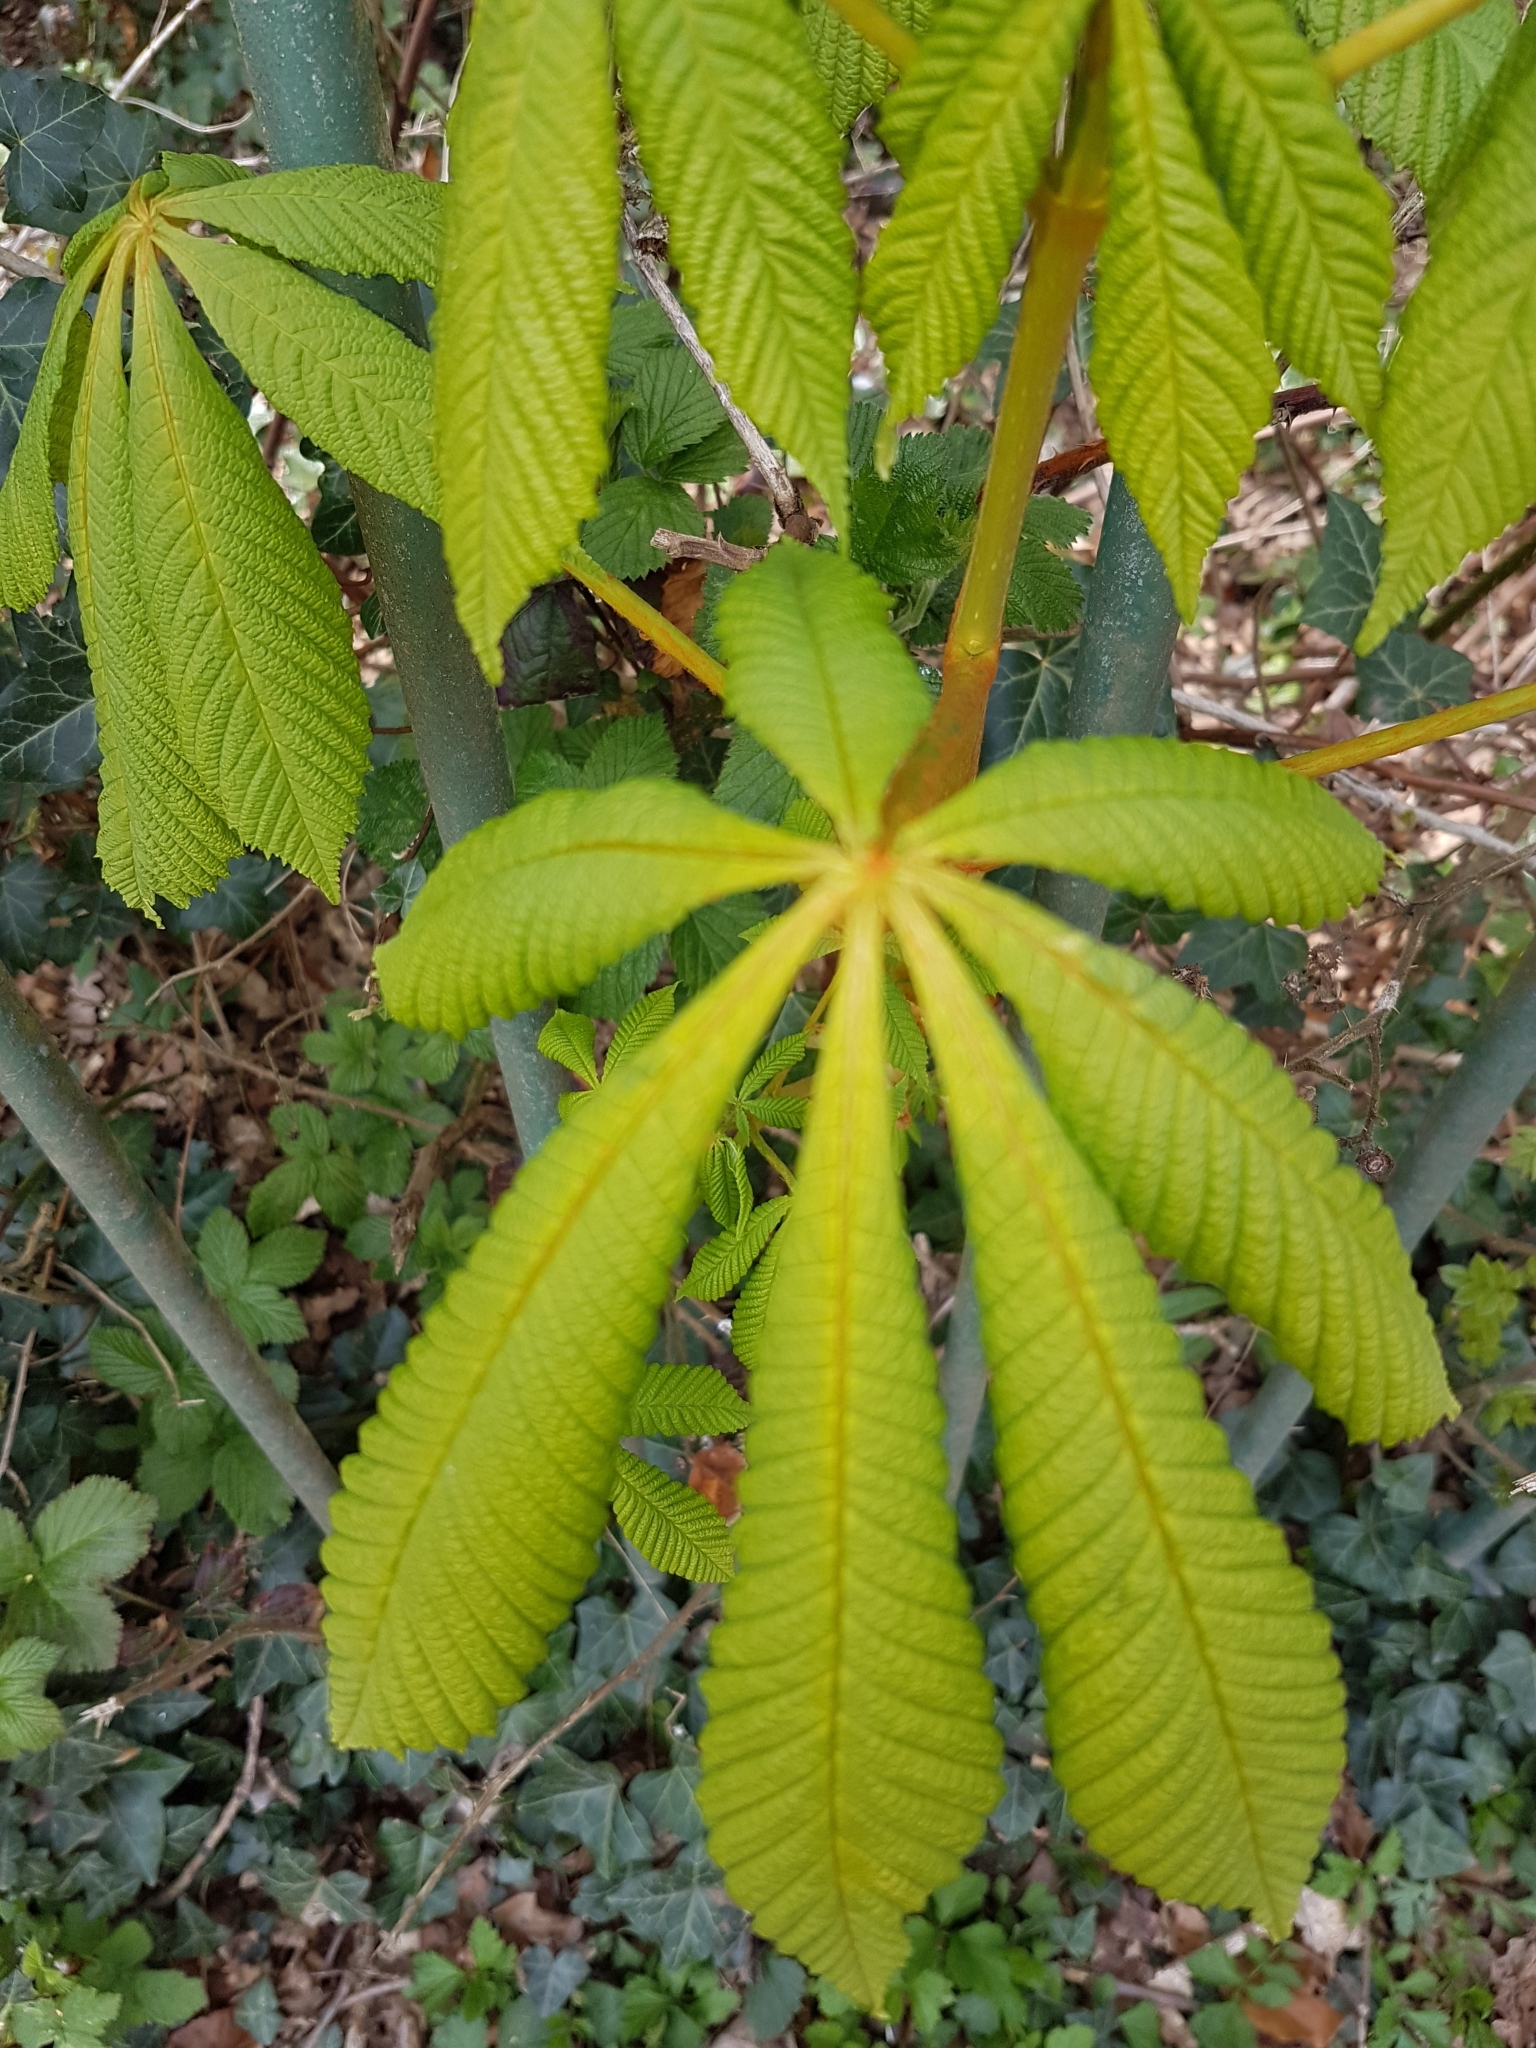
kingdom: Plantae
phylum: Tracheophyta
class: Magnoliopsida
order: Sapindales
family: Sapindaceae
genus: Aesculus
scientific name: Aesculus hippocastanum
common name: Horse-chestnut
